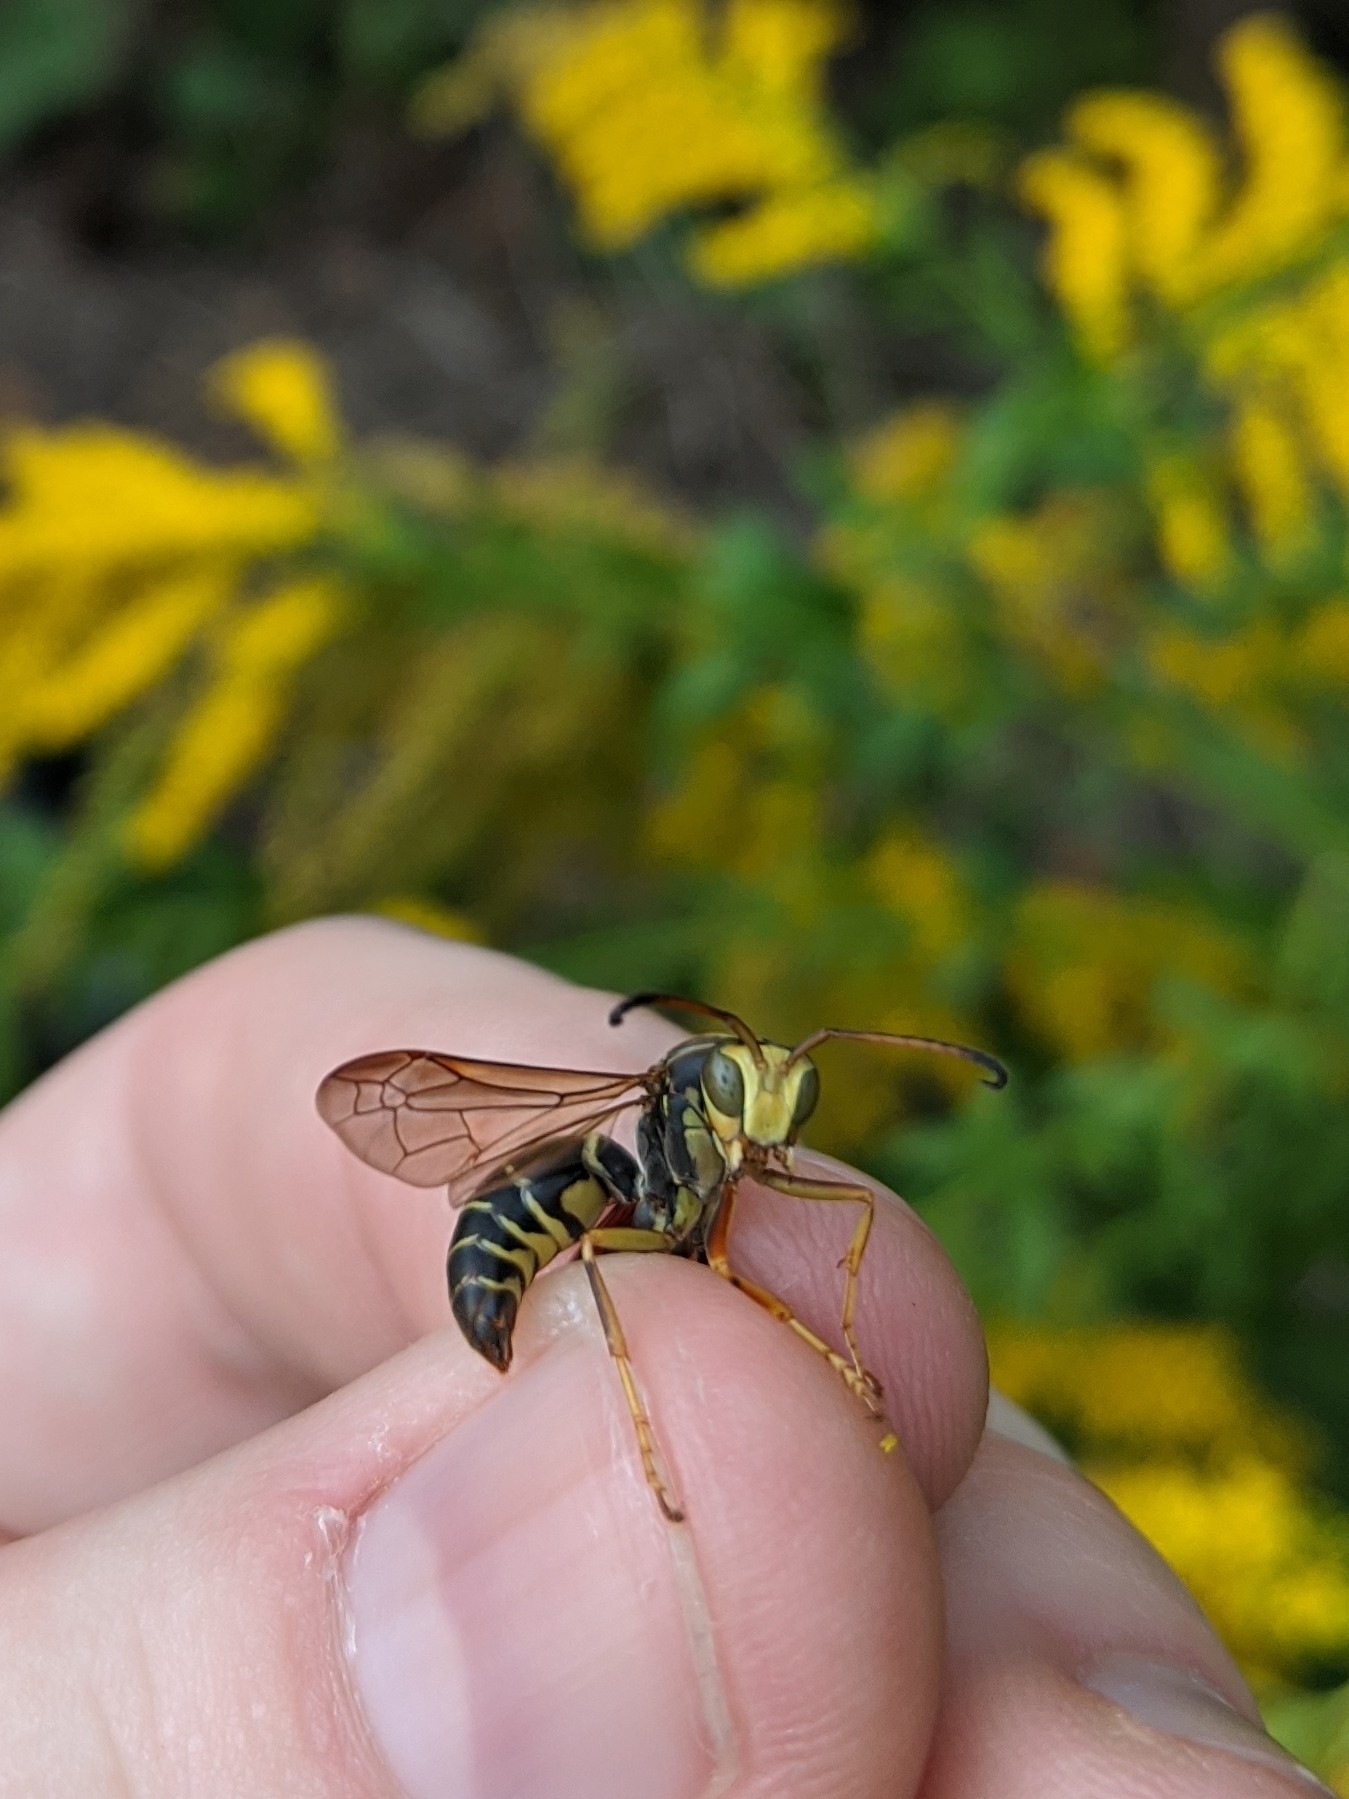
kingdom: Animalia
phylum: Arthropoda
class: Insecta
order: Hymenoptera
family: Eumenidae
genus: Polistes
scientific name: Polistes fuscatus
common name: Dark paper wasp
